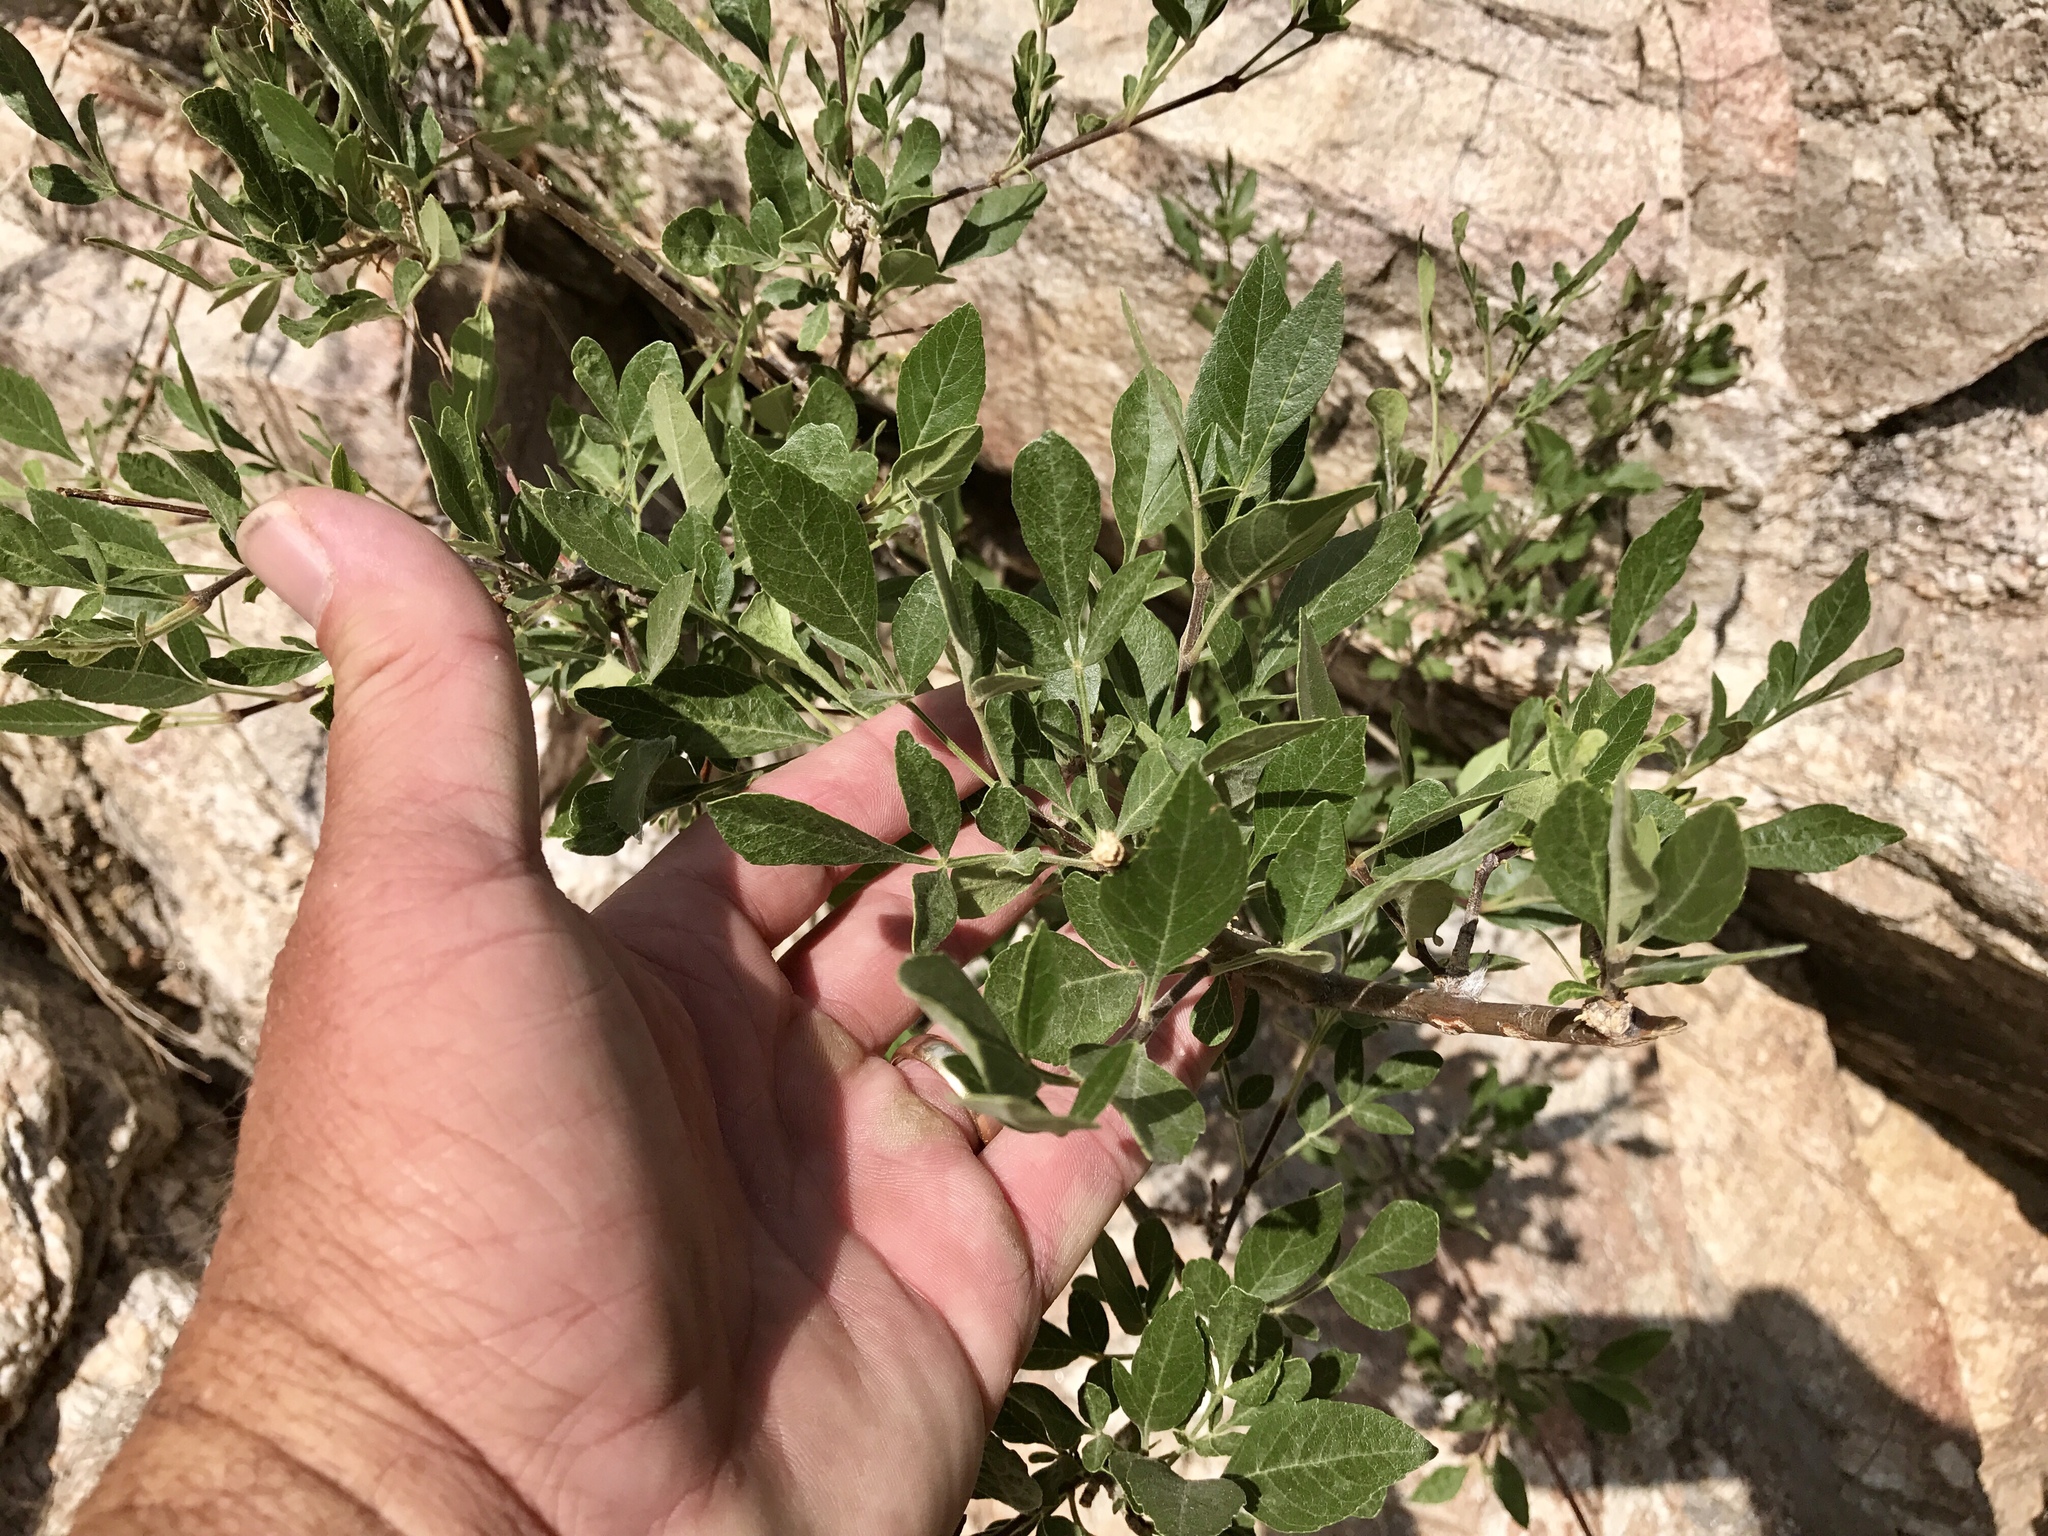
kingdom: Plantae
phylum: Tracheophyta
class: Magnoliopsida
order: Lamiales
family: Oleaceae
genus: Fraxinus
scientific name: Fraxinus velutina
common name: Arizon ash
